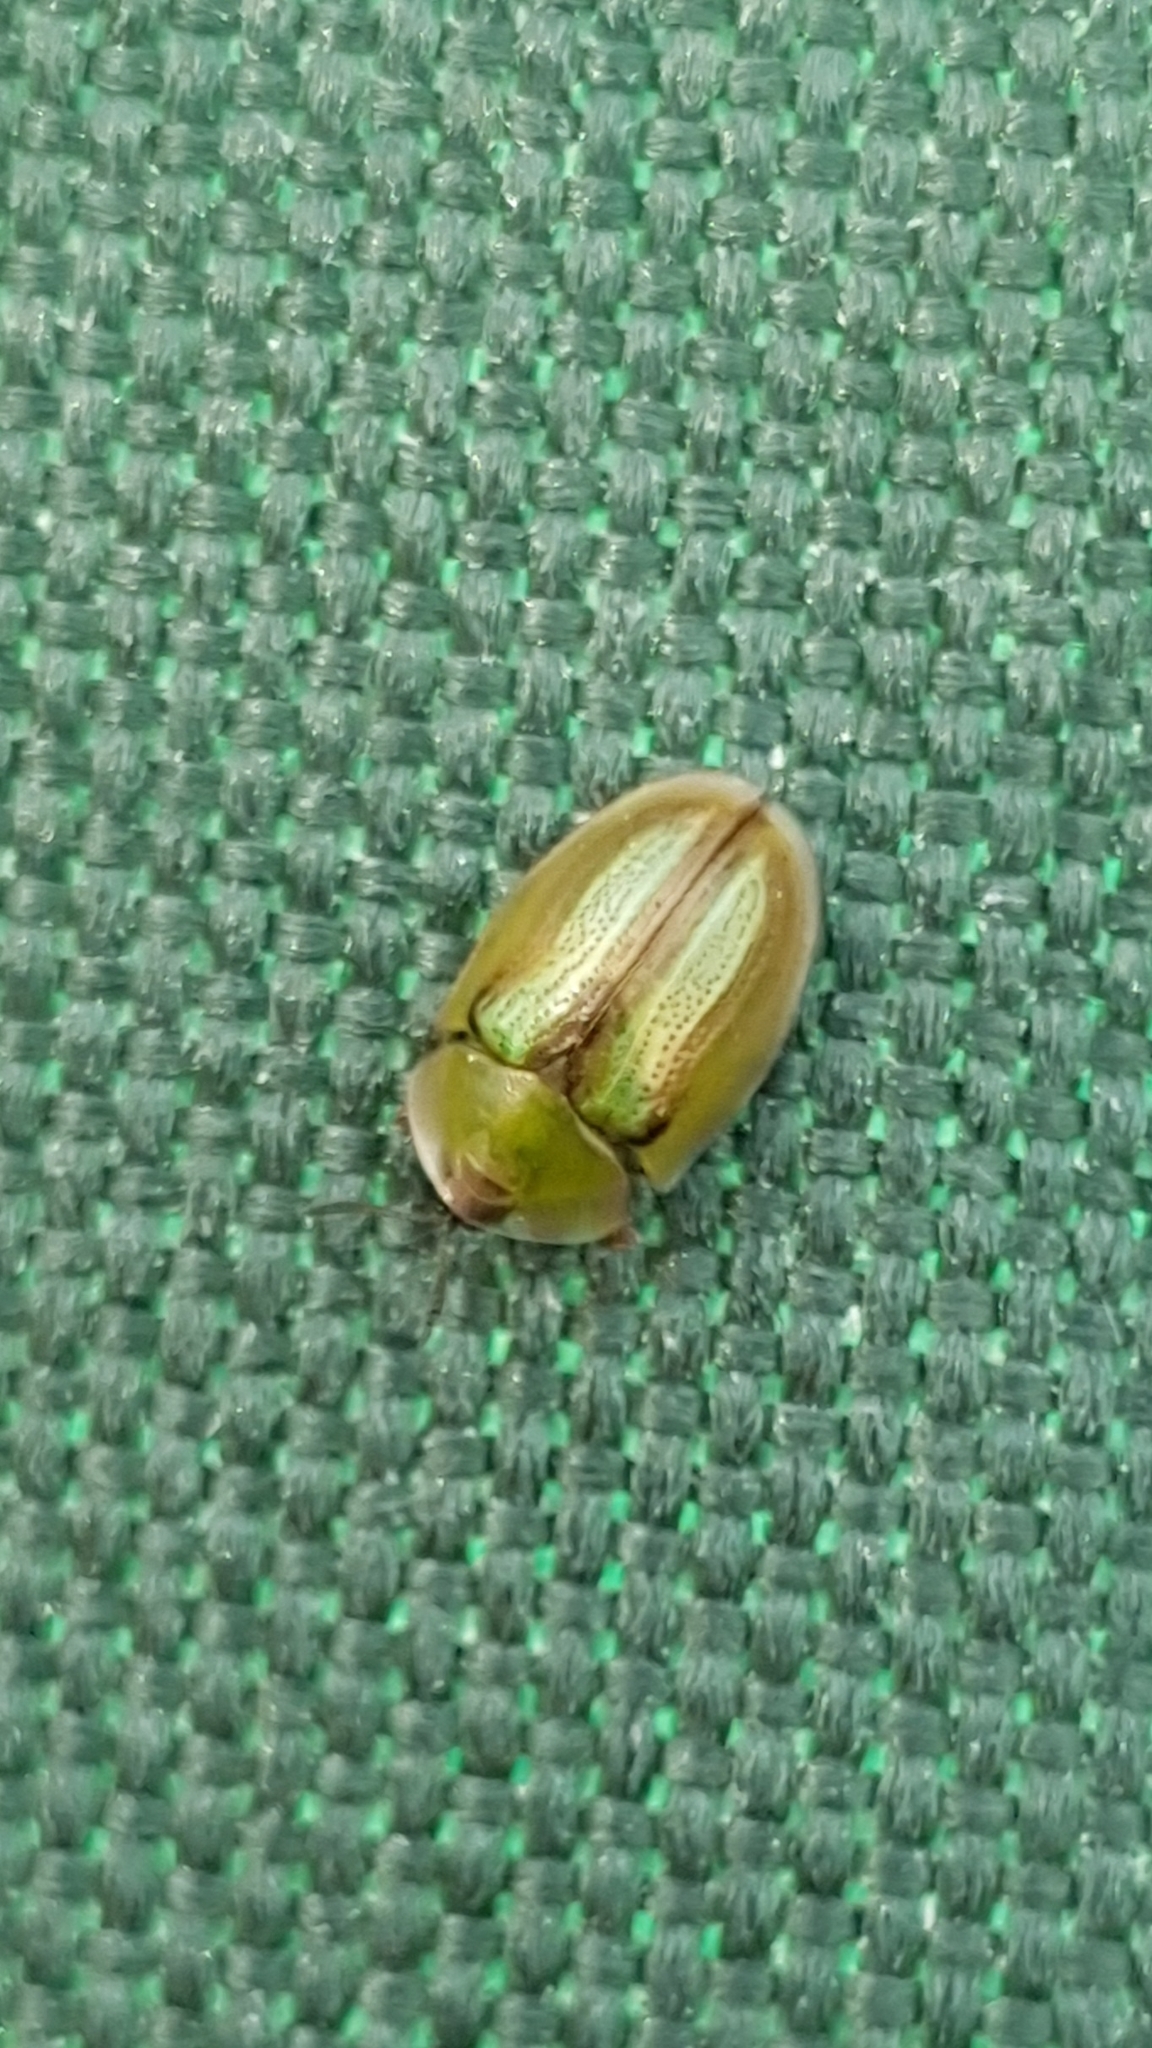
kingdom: Animalia
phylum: Arthropoda
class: Insecta
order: Coleoptera
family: Chrysomelidae
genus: Cassida
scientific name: Cassida vittata
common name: Bordered tortoise beetle
